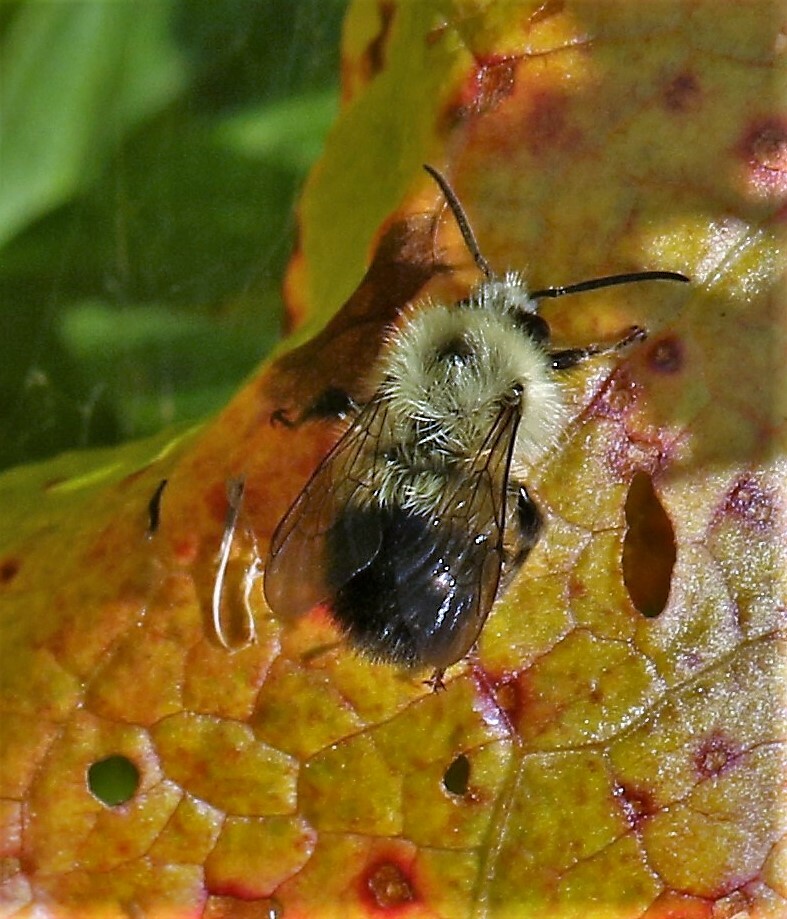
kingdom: Animalia
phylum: Arthropoda
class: Insecta
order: Hymenoptera
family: Apidae
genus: Pyrobombus
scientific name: Pyrobombus
